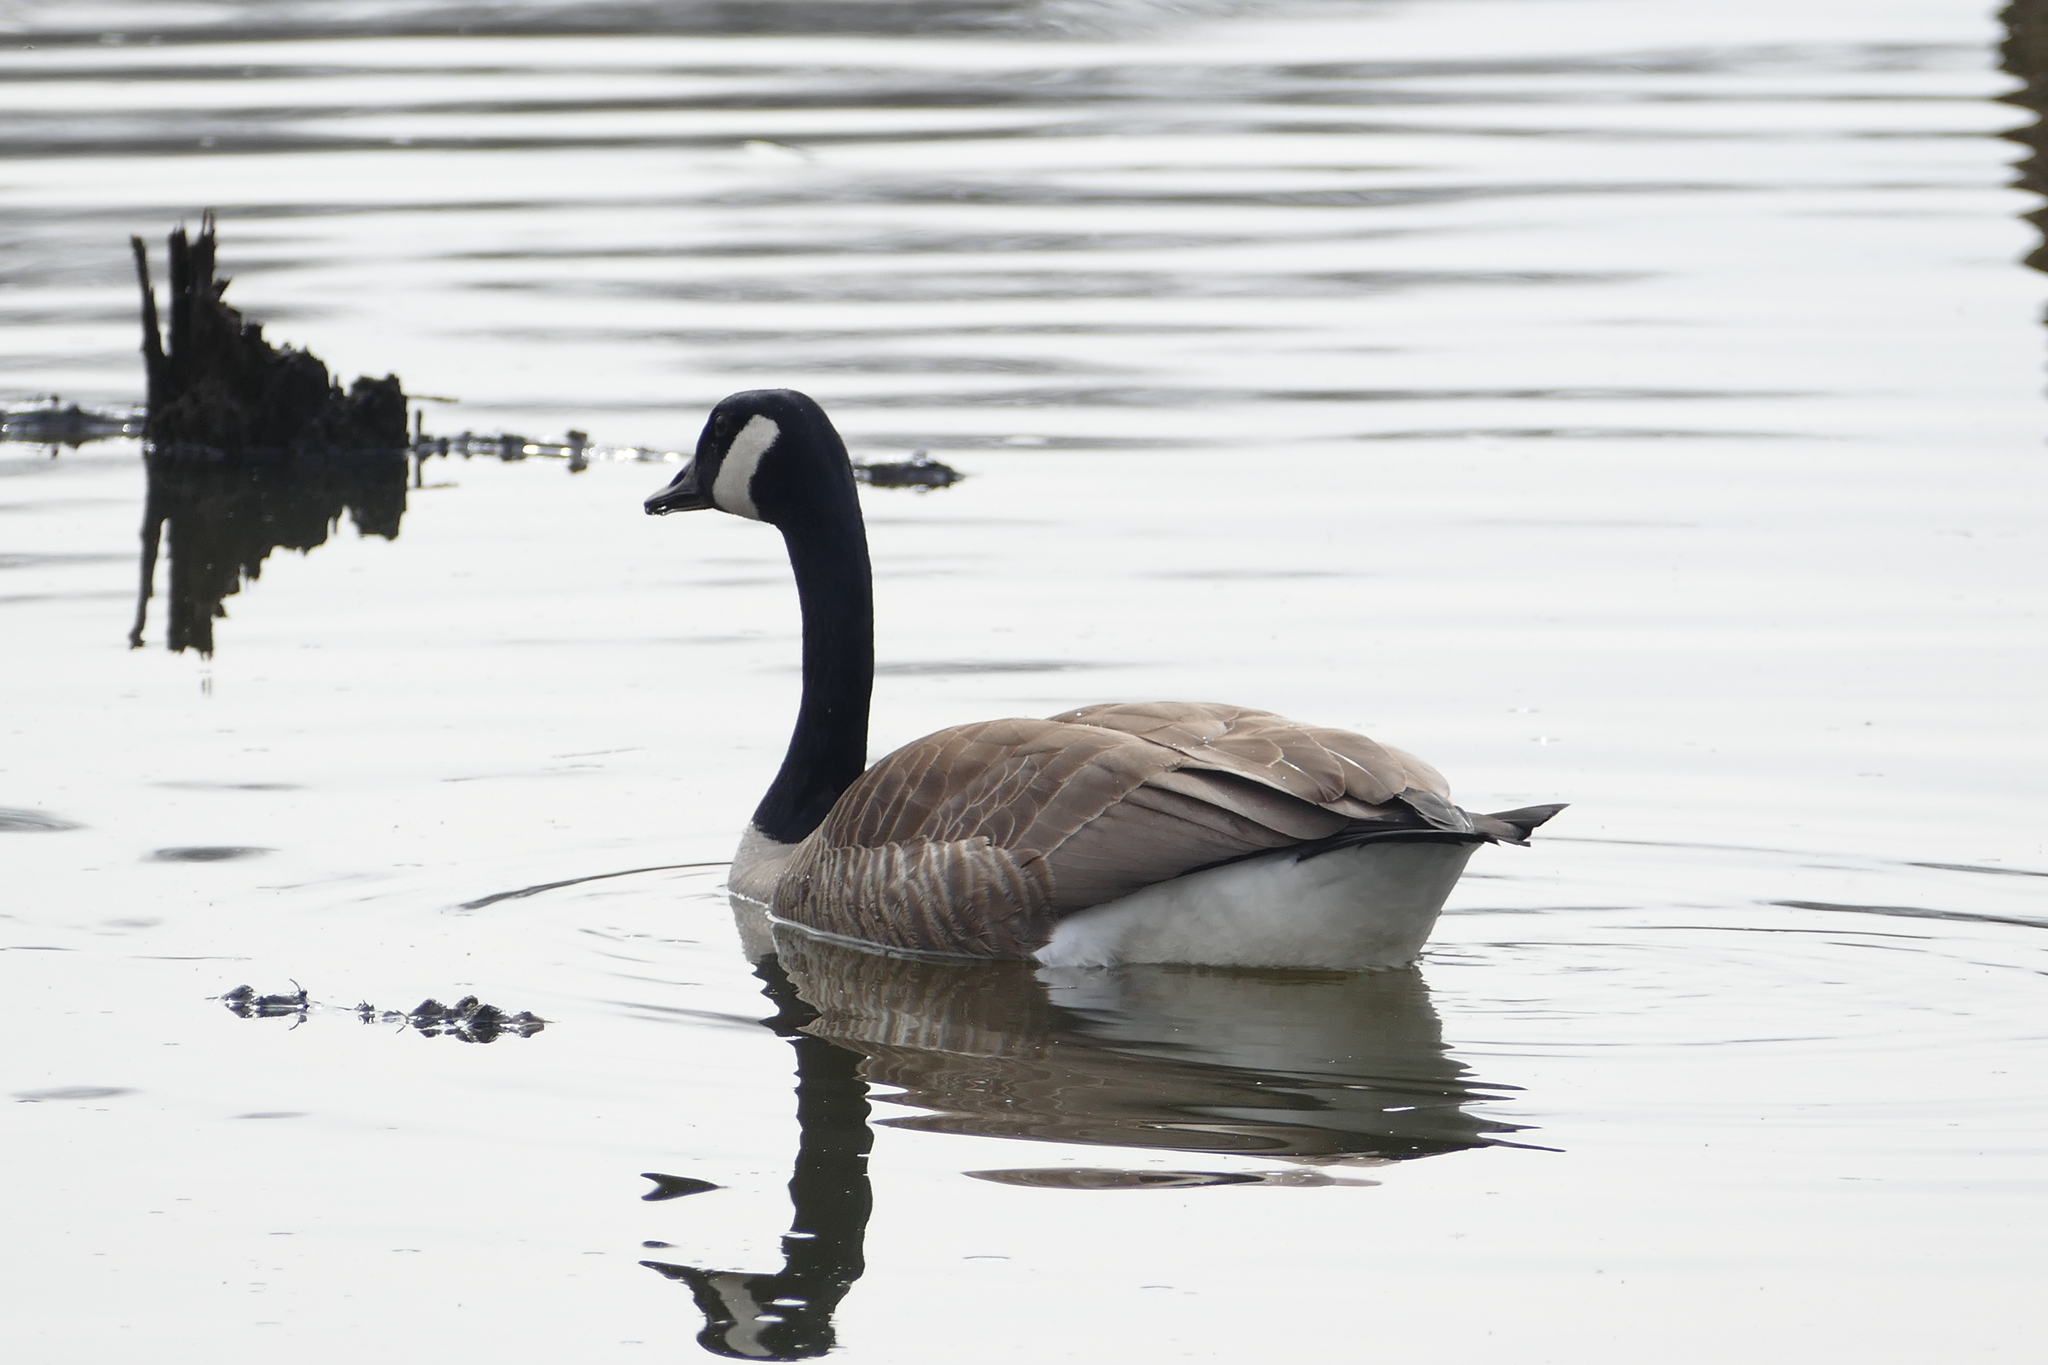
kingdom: Animalia
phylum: Chordata
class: Aves
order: Anseriformes
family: Anatidae
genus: Branta
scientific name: Branta canadensis
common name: Canada goose
